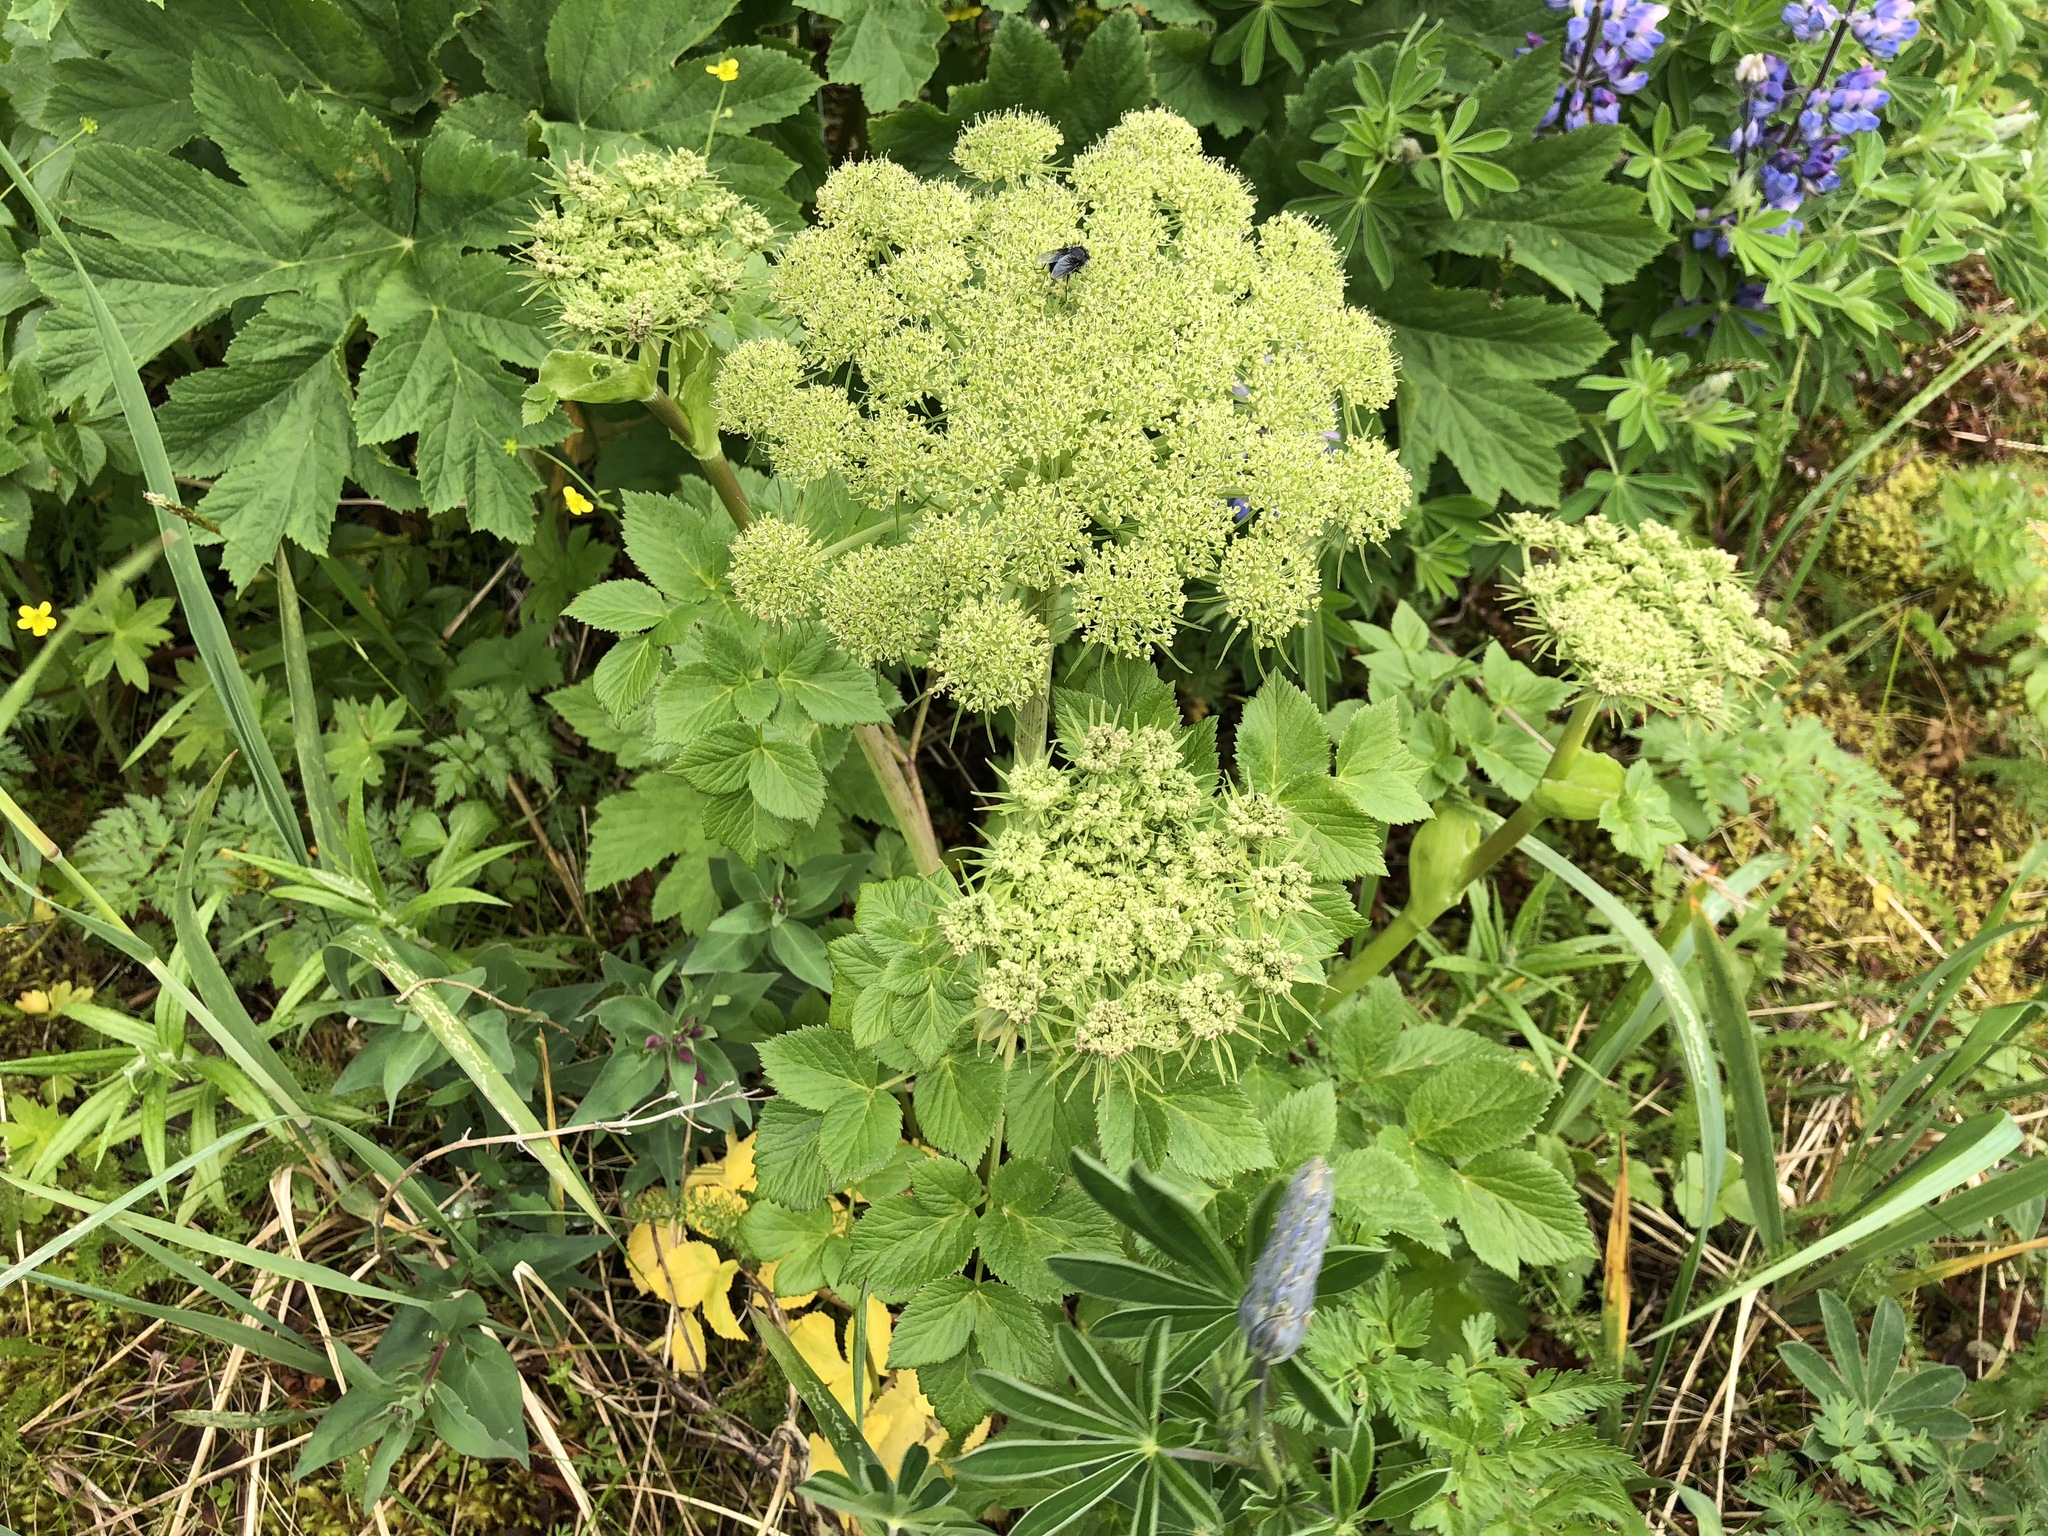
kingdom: Plantae
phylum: Tracheophyta
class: Magnoliopsida
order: Apiales
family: Apiaceae
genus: Angelica
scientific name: Angelica lucida
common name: Seabeach angelica
